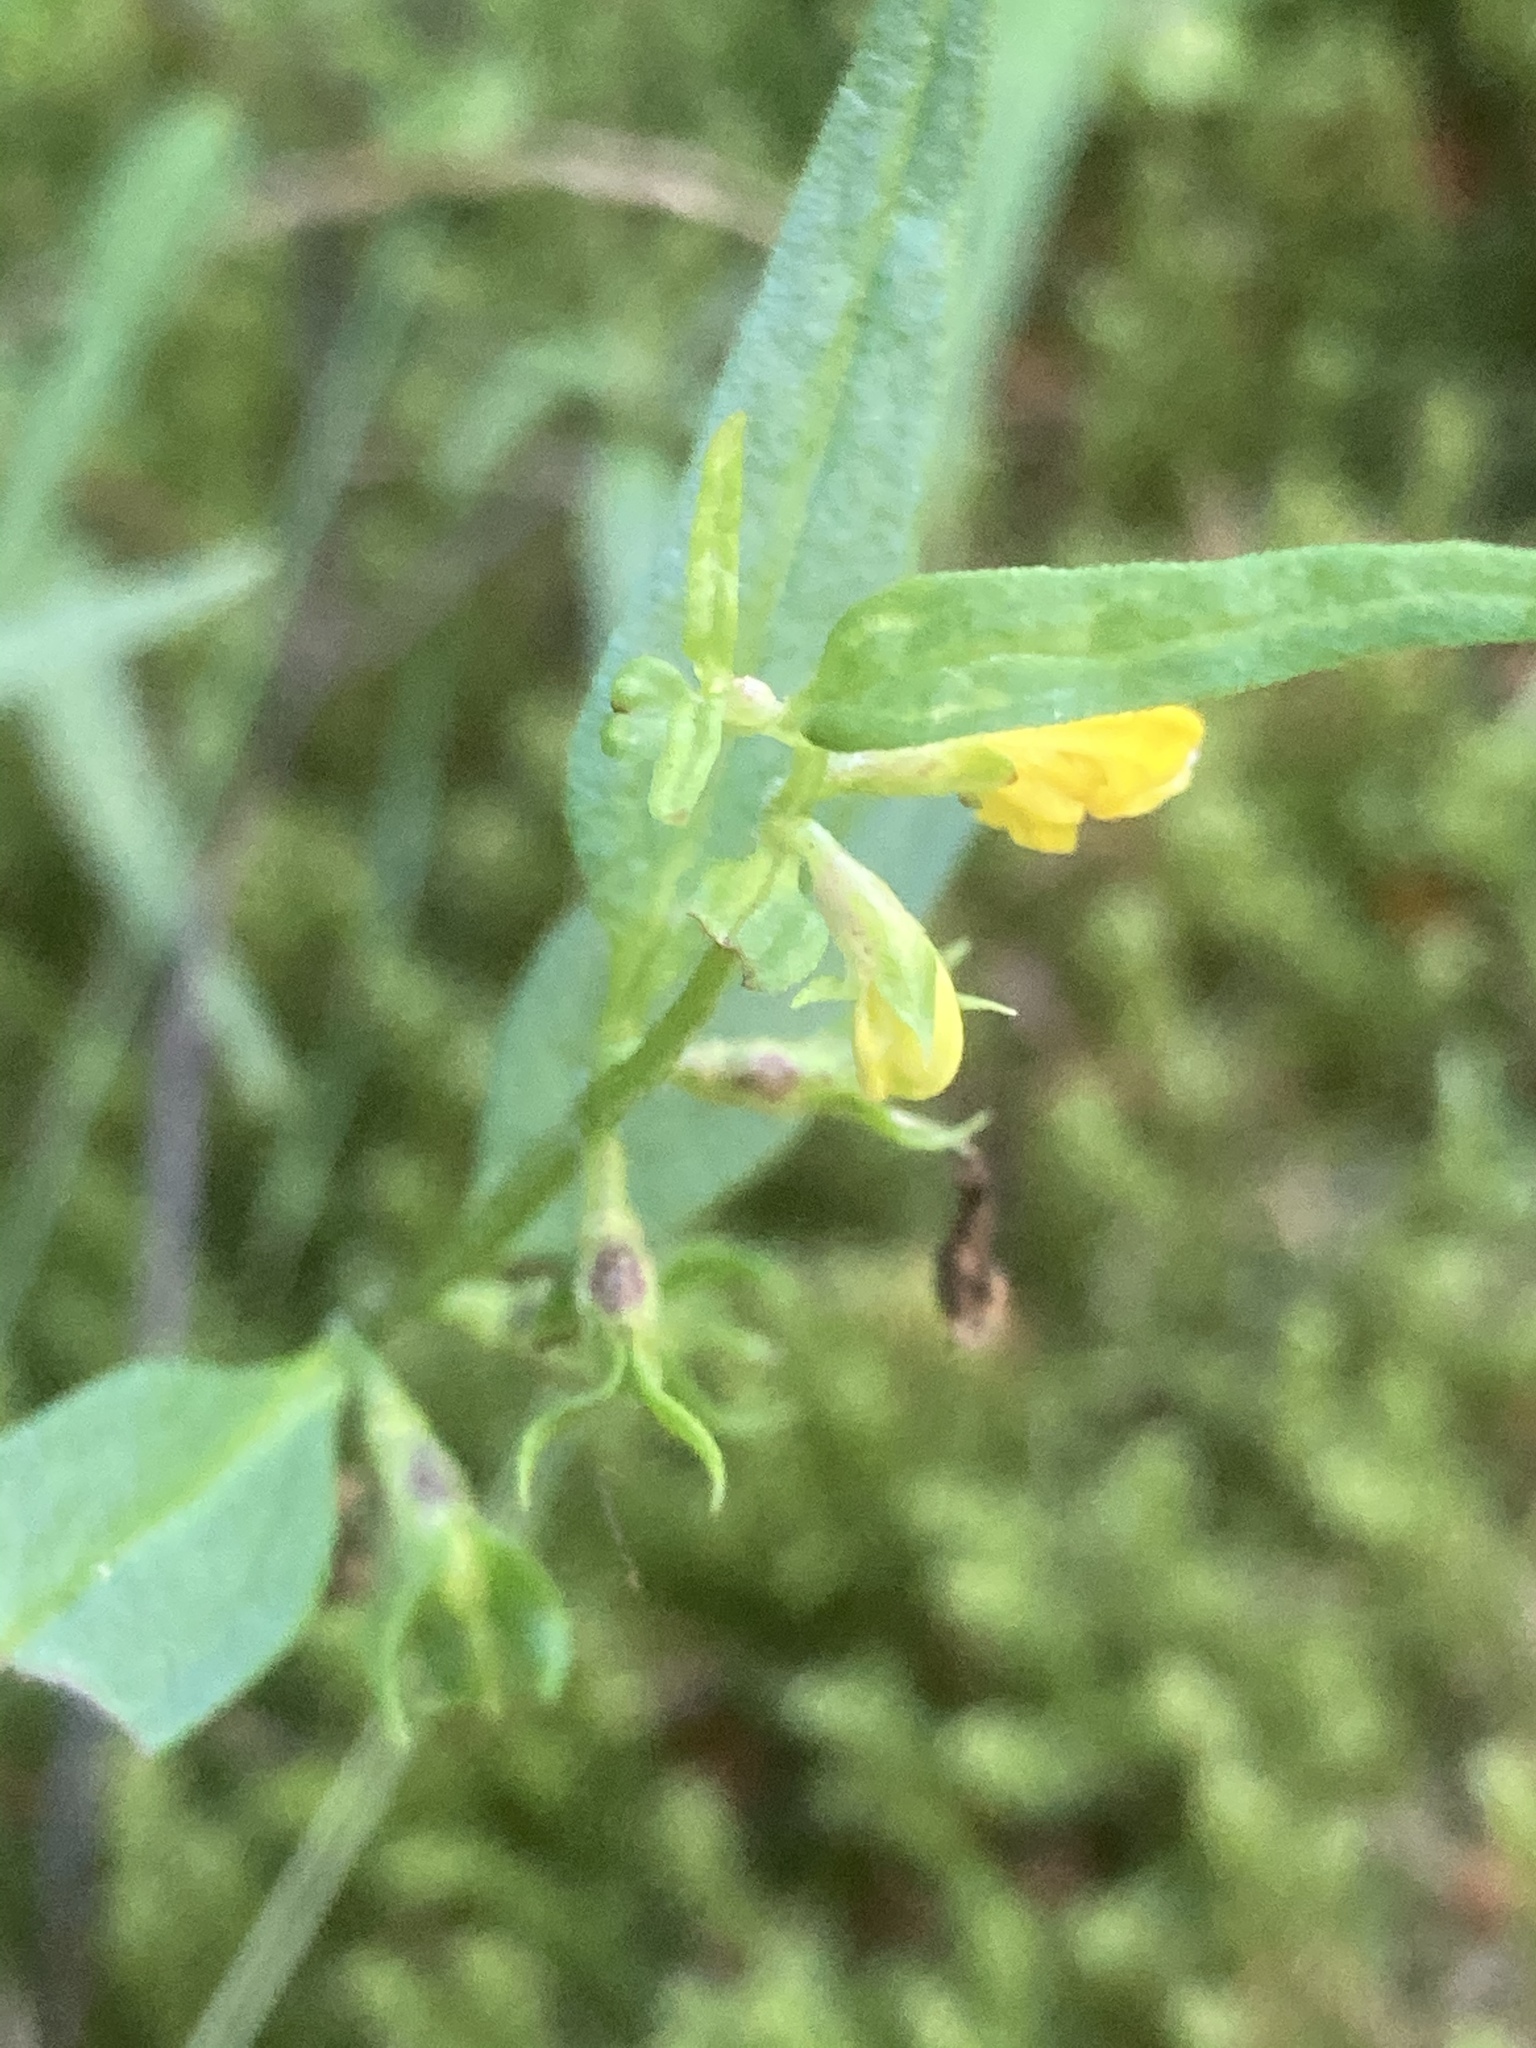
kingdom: Plantae
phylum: Tracheophyta
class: Magnoliopsida
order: Lamiales
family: Orobanchaceae
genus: Melampyrum
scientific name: Melampyrum pratense
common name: Common cow-wheat
